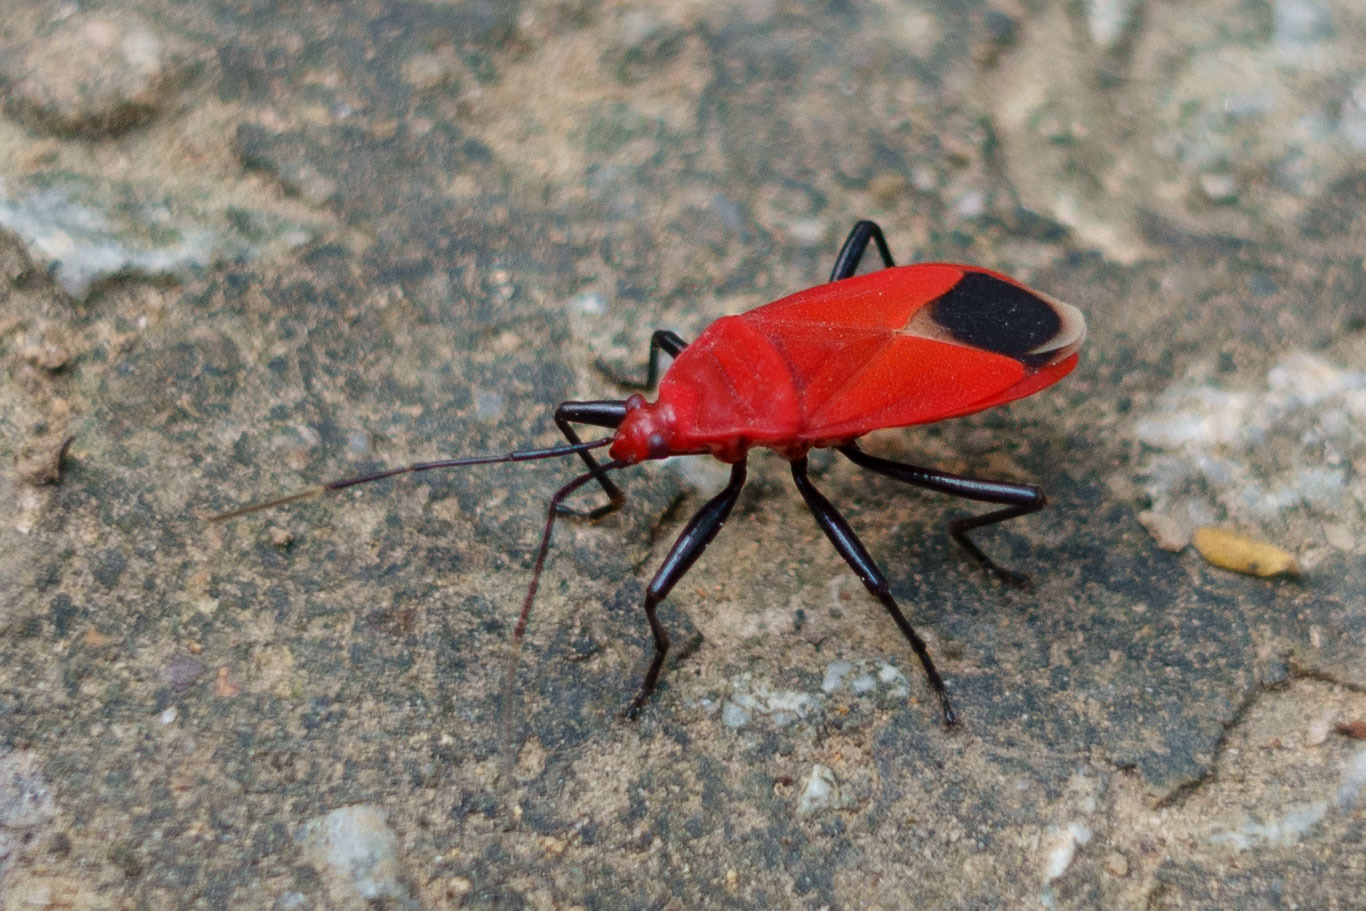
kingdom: Animalia
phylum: Arthropoda
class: Insecta
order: Hemiptera
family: Pyrrhocoridae
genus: Antilochus
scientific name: Antilochus
